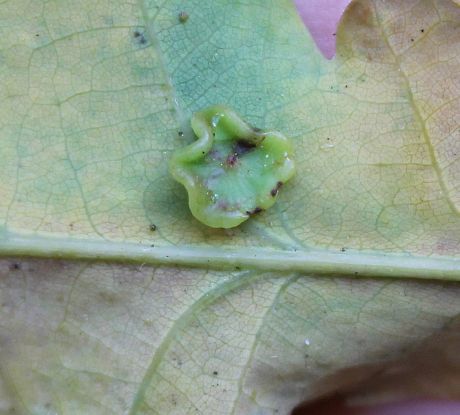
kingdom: Animalia
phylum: Arthropoda
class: Insecta
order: Hymenoptera
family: Cynipidae
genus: Neuroterus
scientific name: Neuroterus albipes
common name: Smooth spangle gall
